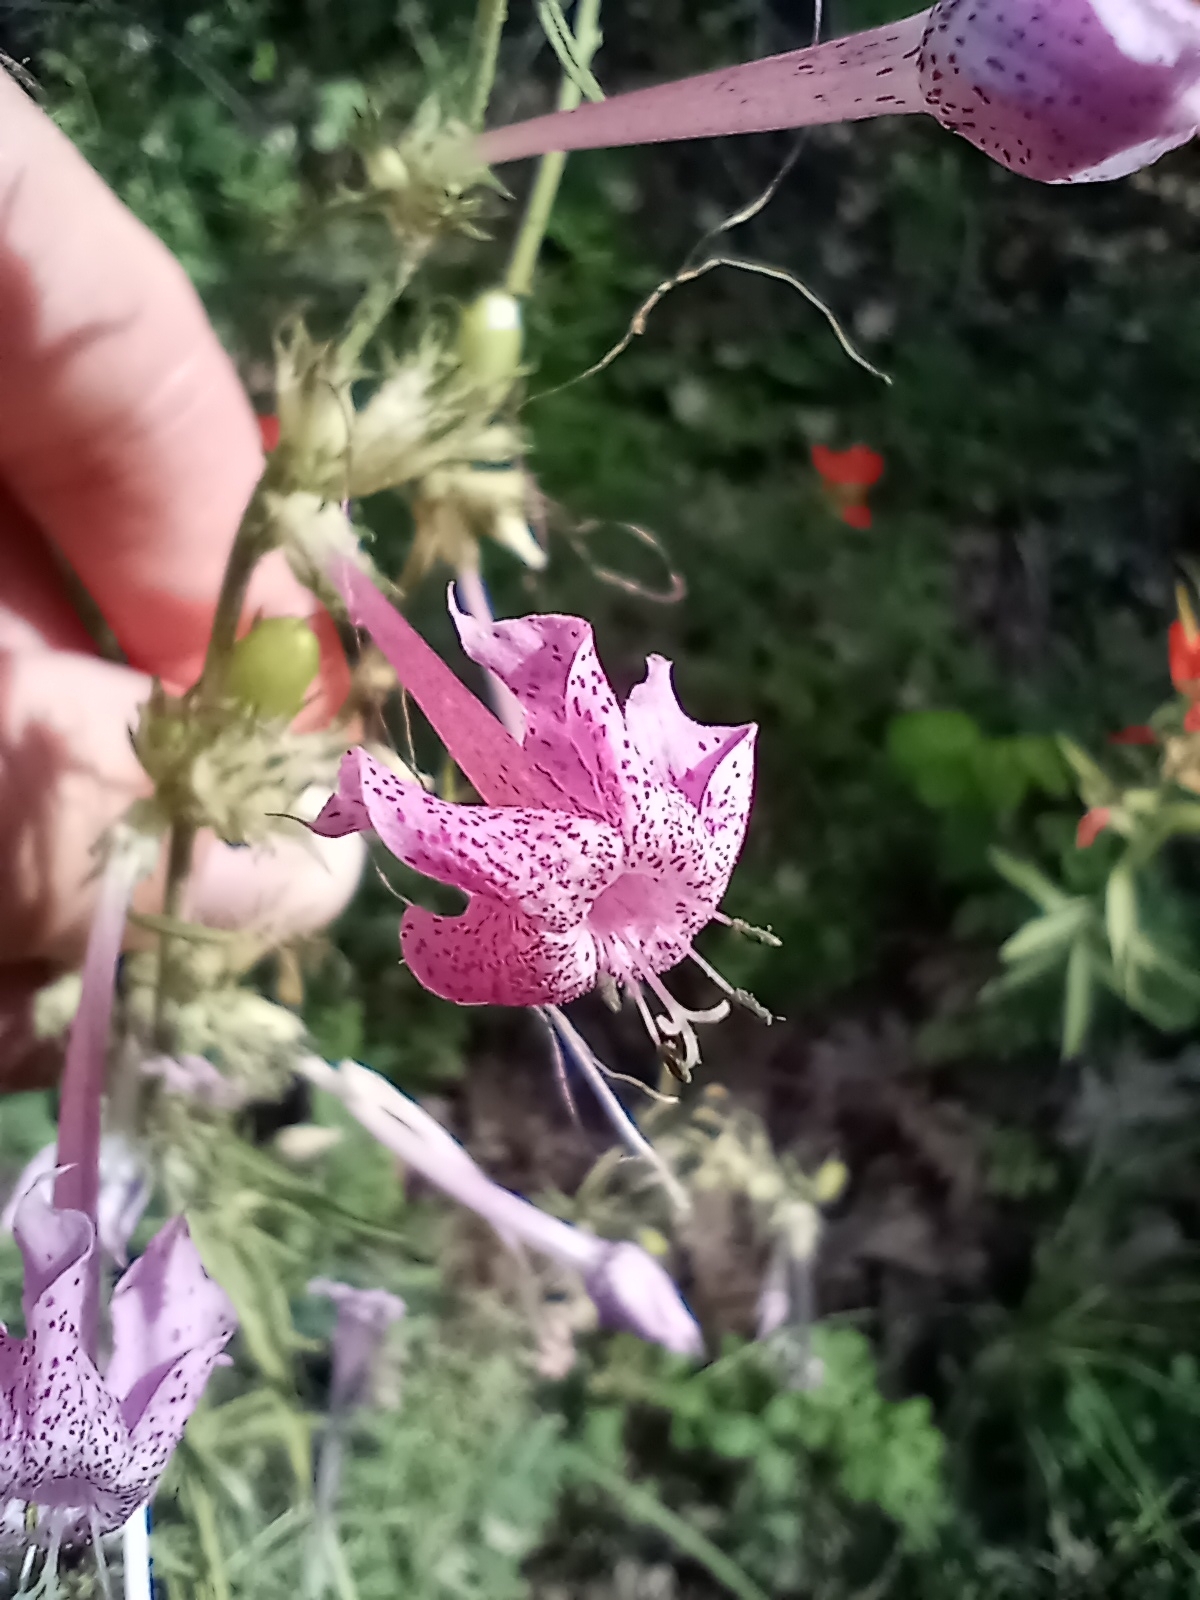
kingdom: Plantae
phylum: Tracheophyta
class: Magnoliopsida
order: Ericales
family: Polemoniaceae
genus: Ipomopsis
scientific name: Ipomopsis macrosiphon
